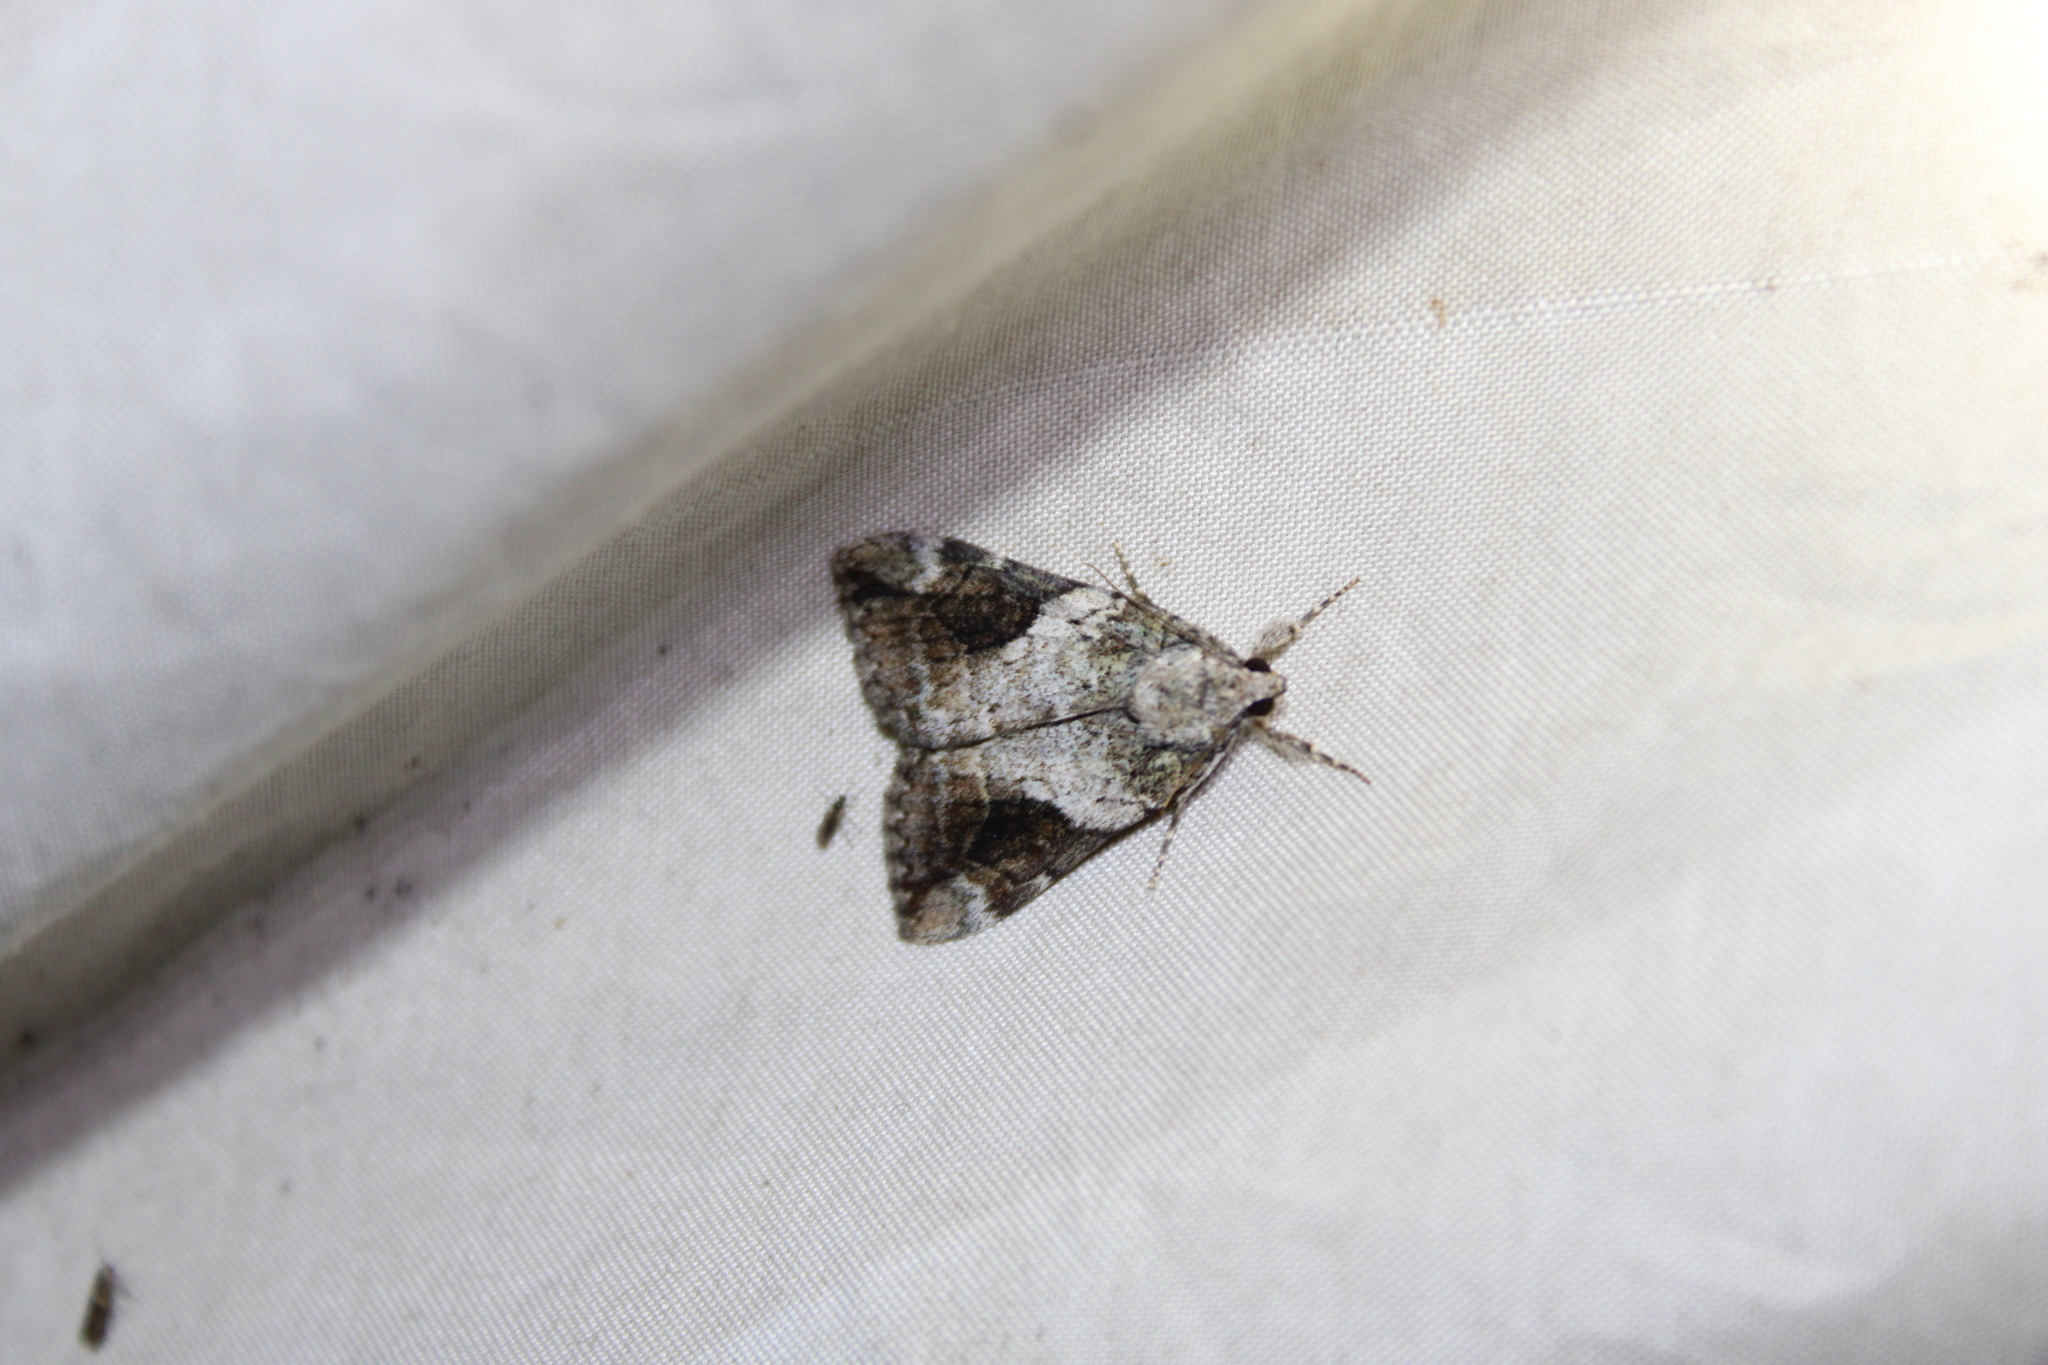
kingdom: Animalia
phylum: Arthropoda
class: Insecta
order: Lepidoptera
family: Erebidae
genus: Catocala
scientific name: Catocala micronympha
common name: Little nymph underwing
